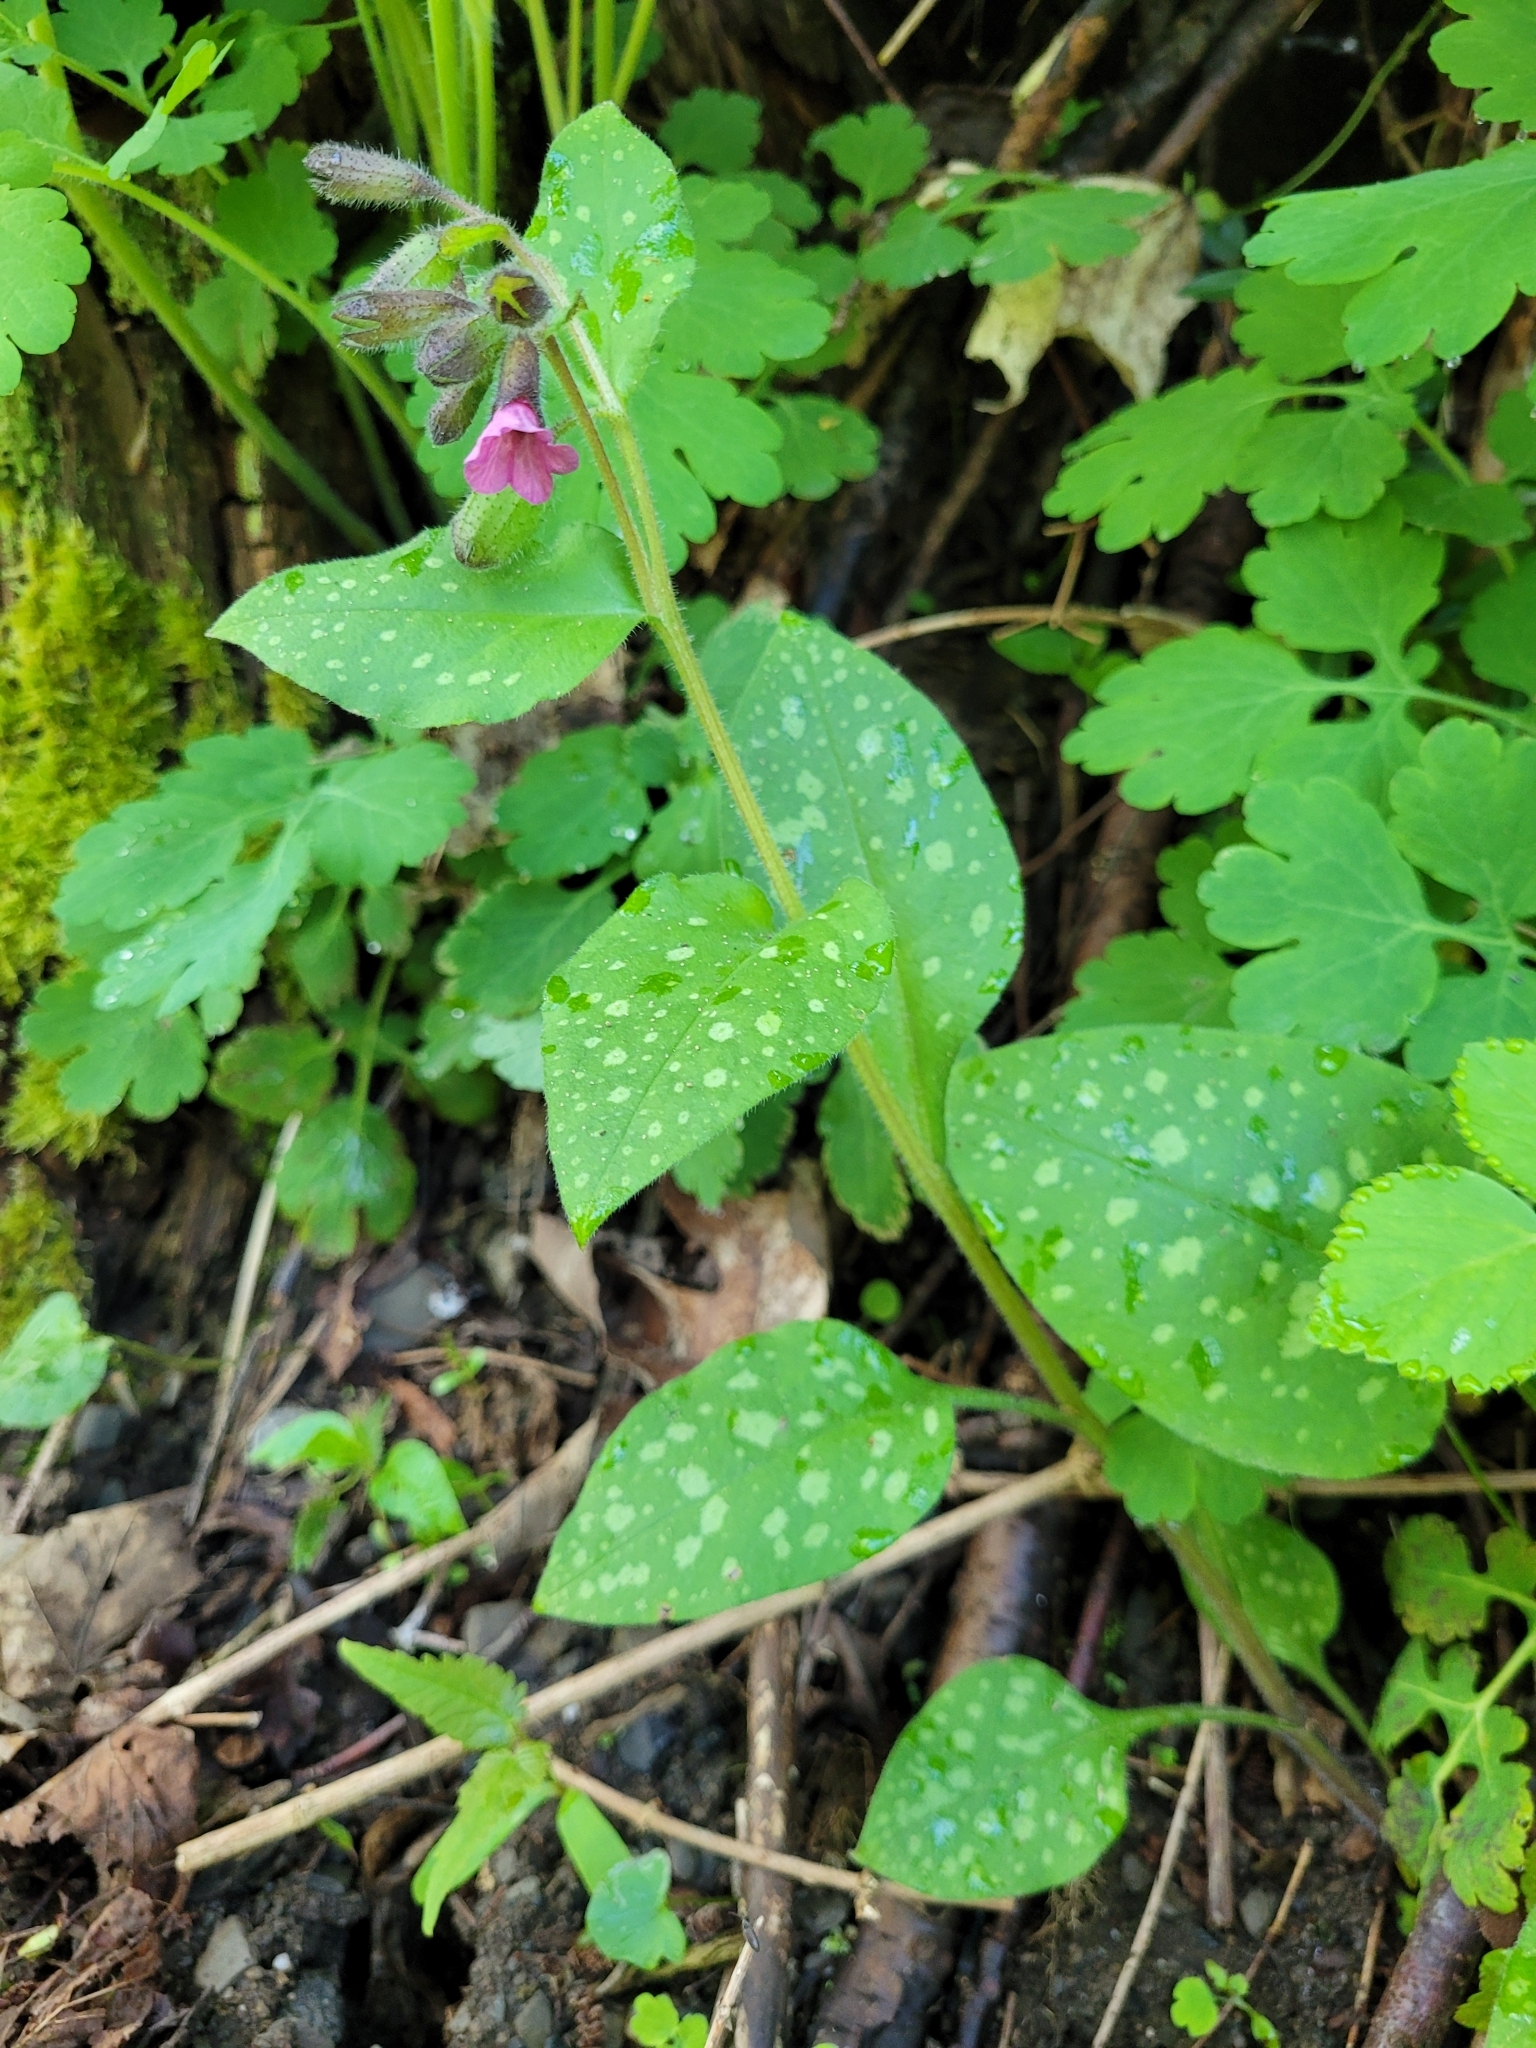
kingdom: Plantae
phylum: Tracheophyta
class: Magnoliopsida
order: Boraginales
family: Boraginaceae
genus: Pulmonaria
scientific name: Pulmonaria officinalis
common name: Lungwort
